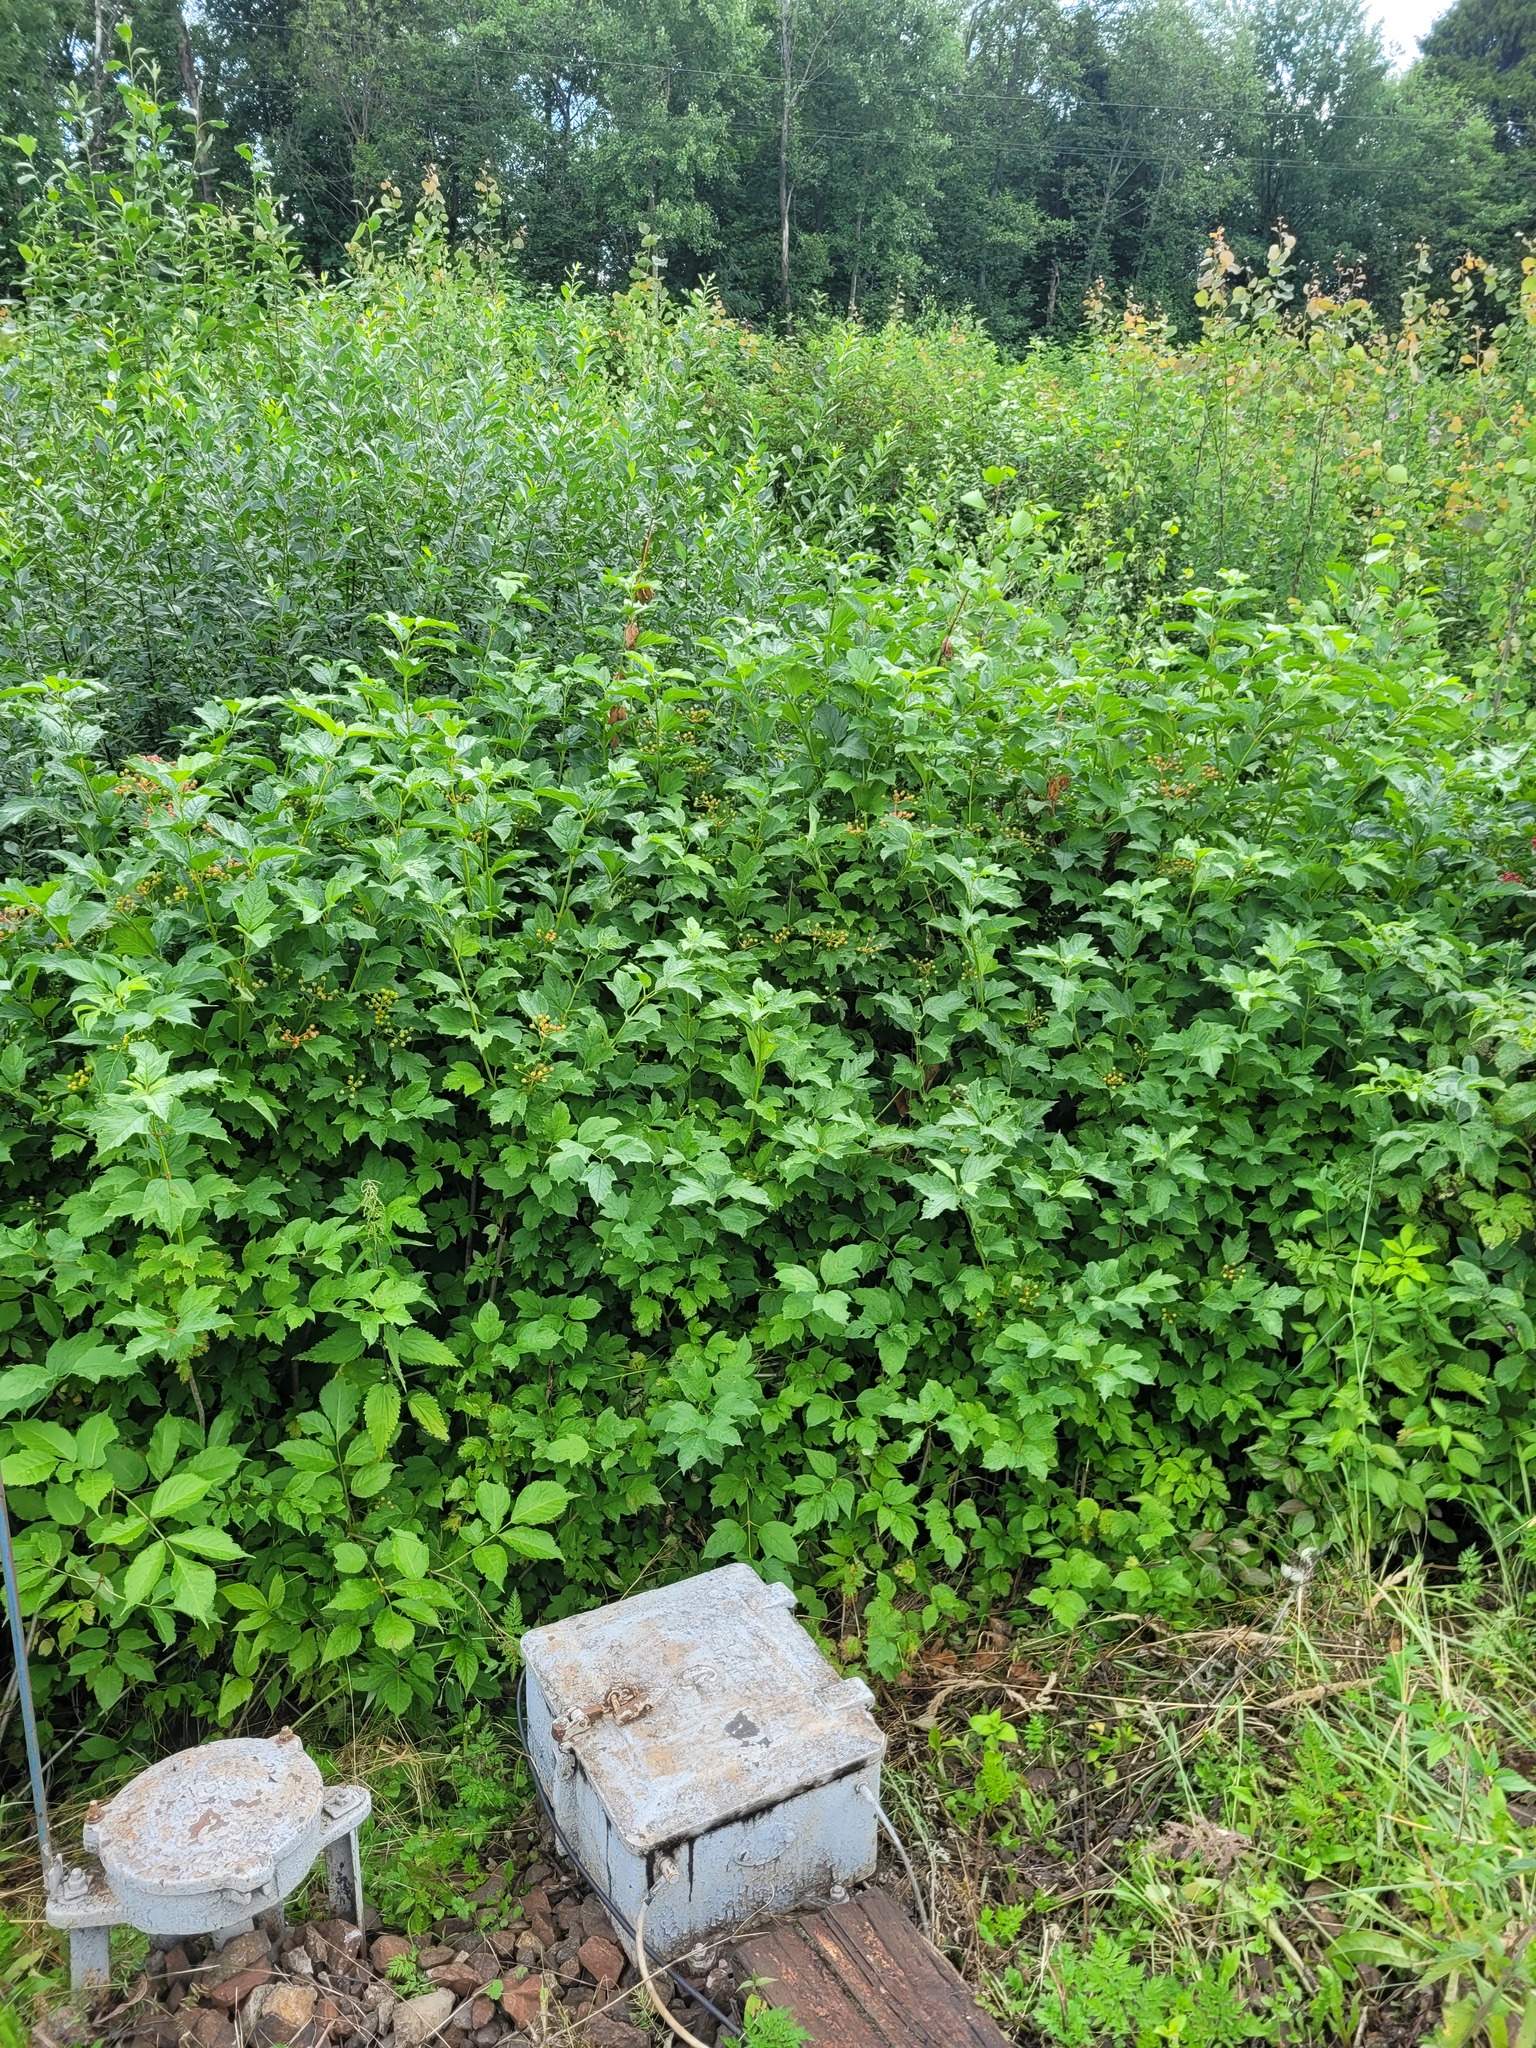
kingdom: Plantae
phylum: Tracheophyta
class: Magnoliopsida
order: Dipsacales
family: Viburnaceae
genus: Viburnum
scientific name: Viburnum opulus
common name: Guelder-rose
